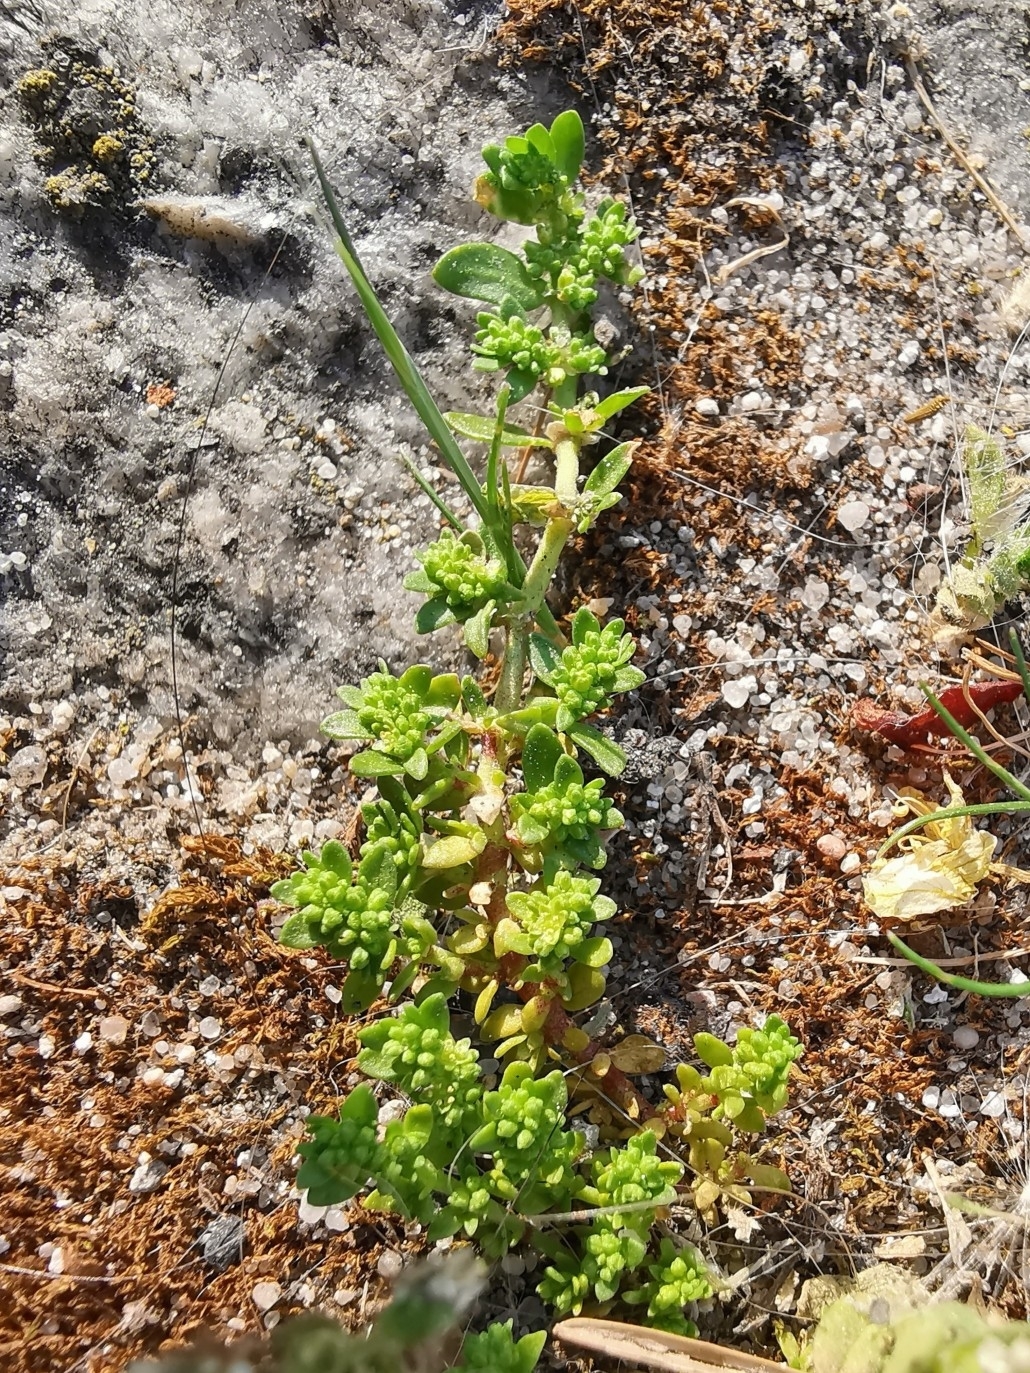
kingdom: Plantae
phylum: Tracheophyta
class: Magnoliopsida
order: Caryophyllales
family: Caryophyllaceae
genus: Herniaria
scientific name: Herniaria glabra
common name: Smooth rupturewort
